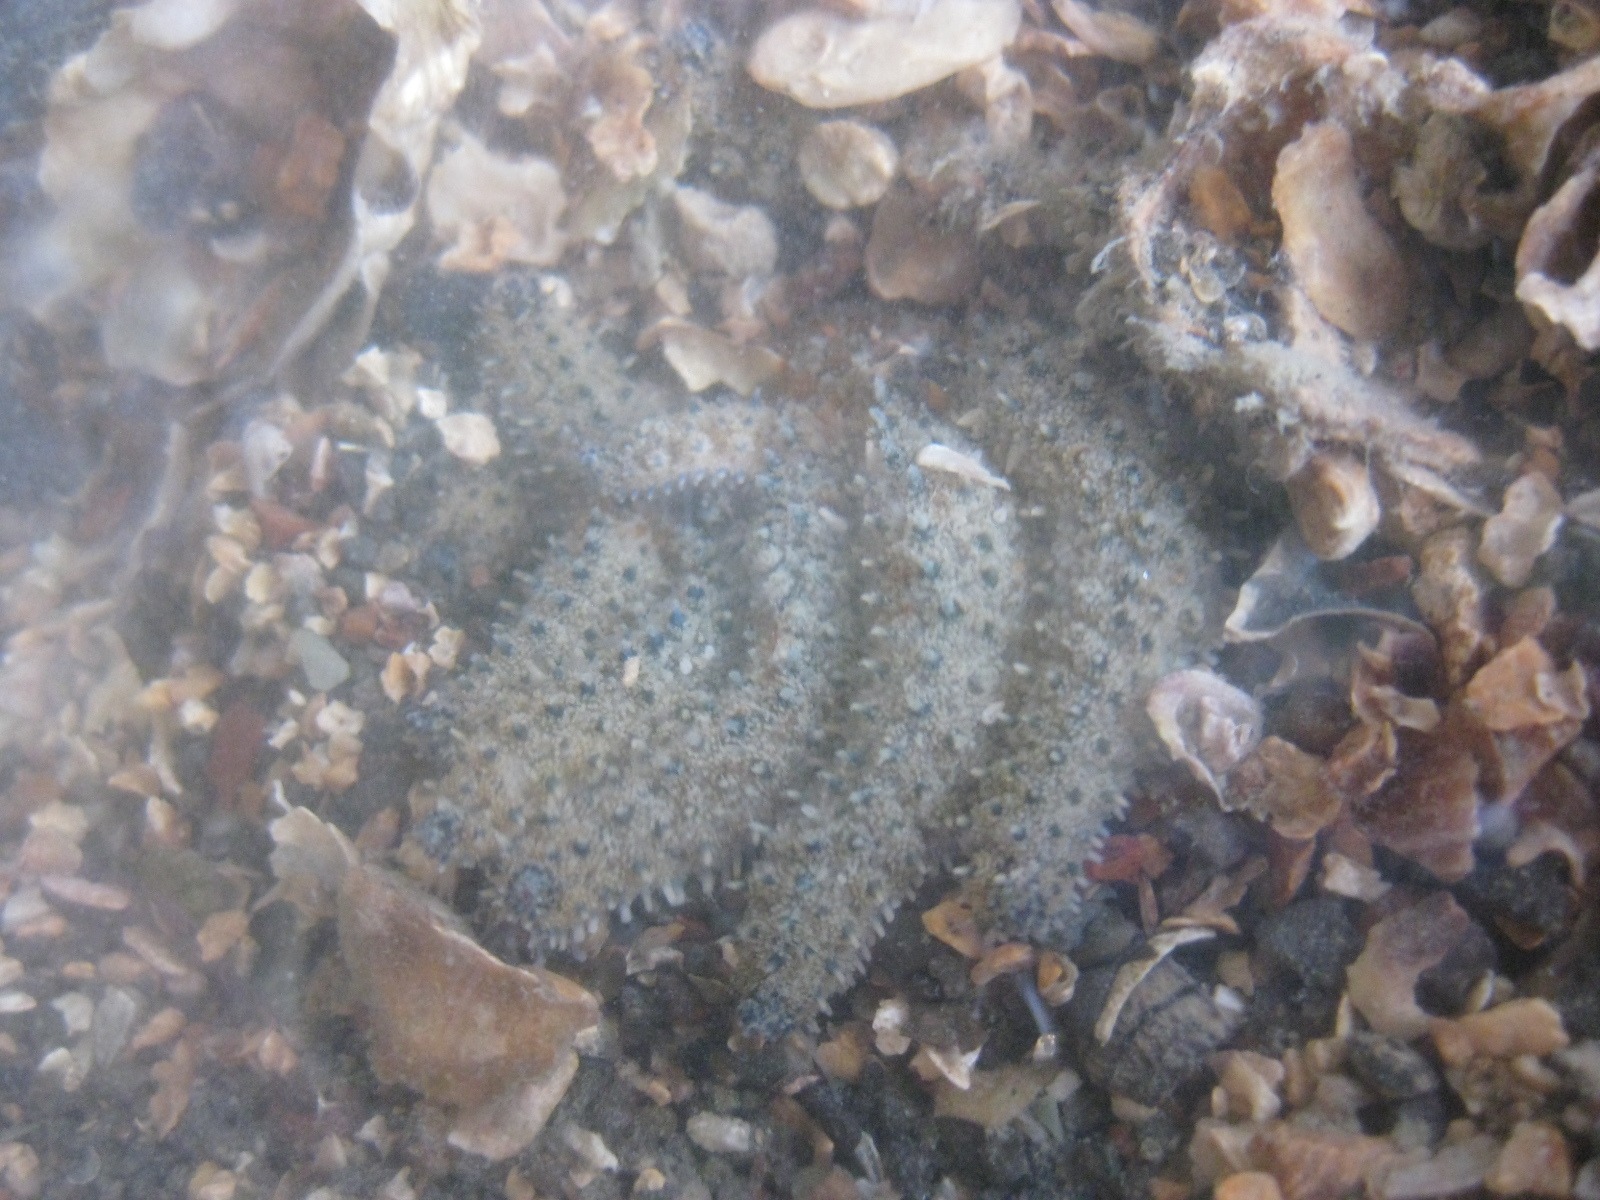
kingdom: Animalia
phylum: Echinodermata
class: Asteroidea
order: Forcipulatida
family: Asteriidae
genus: Coscinasterias
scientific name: Coscinasterias muricata
